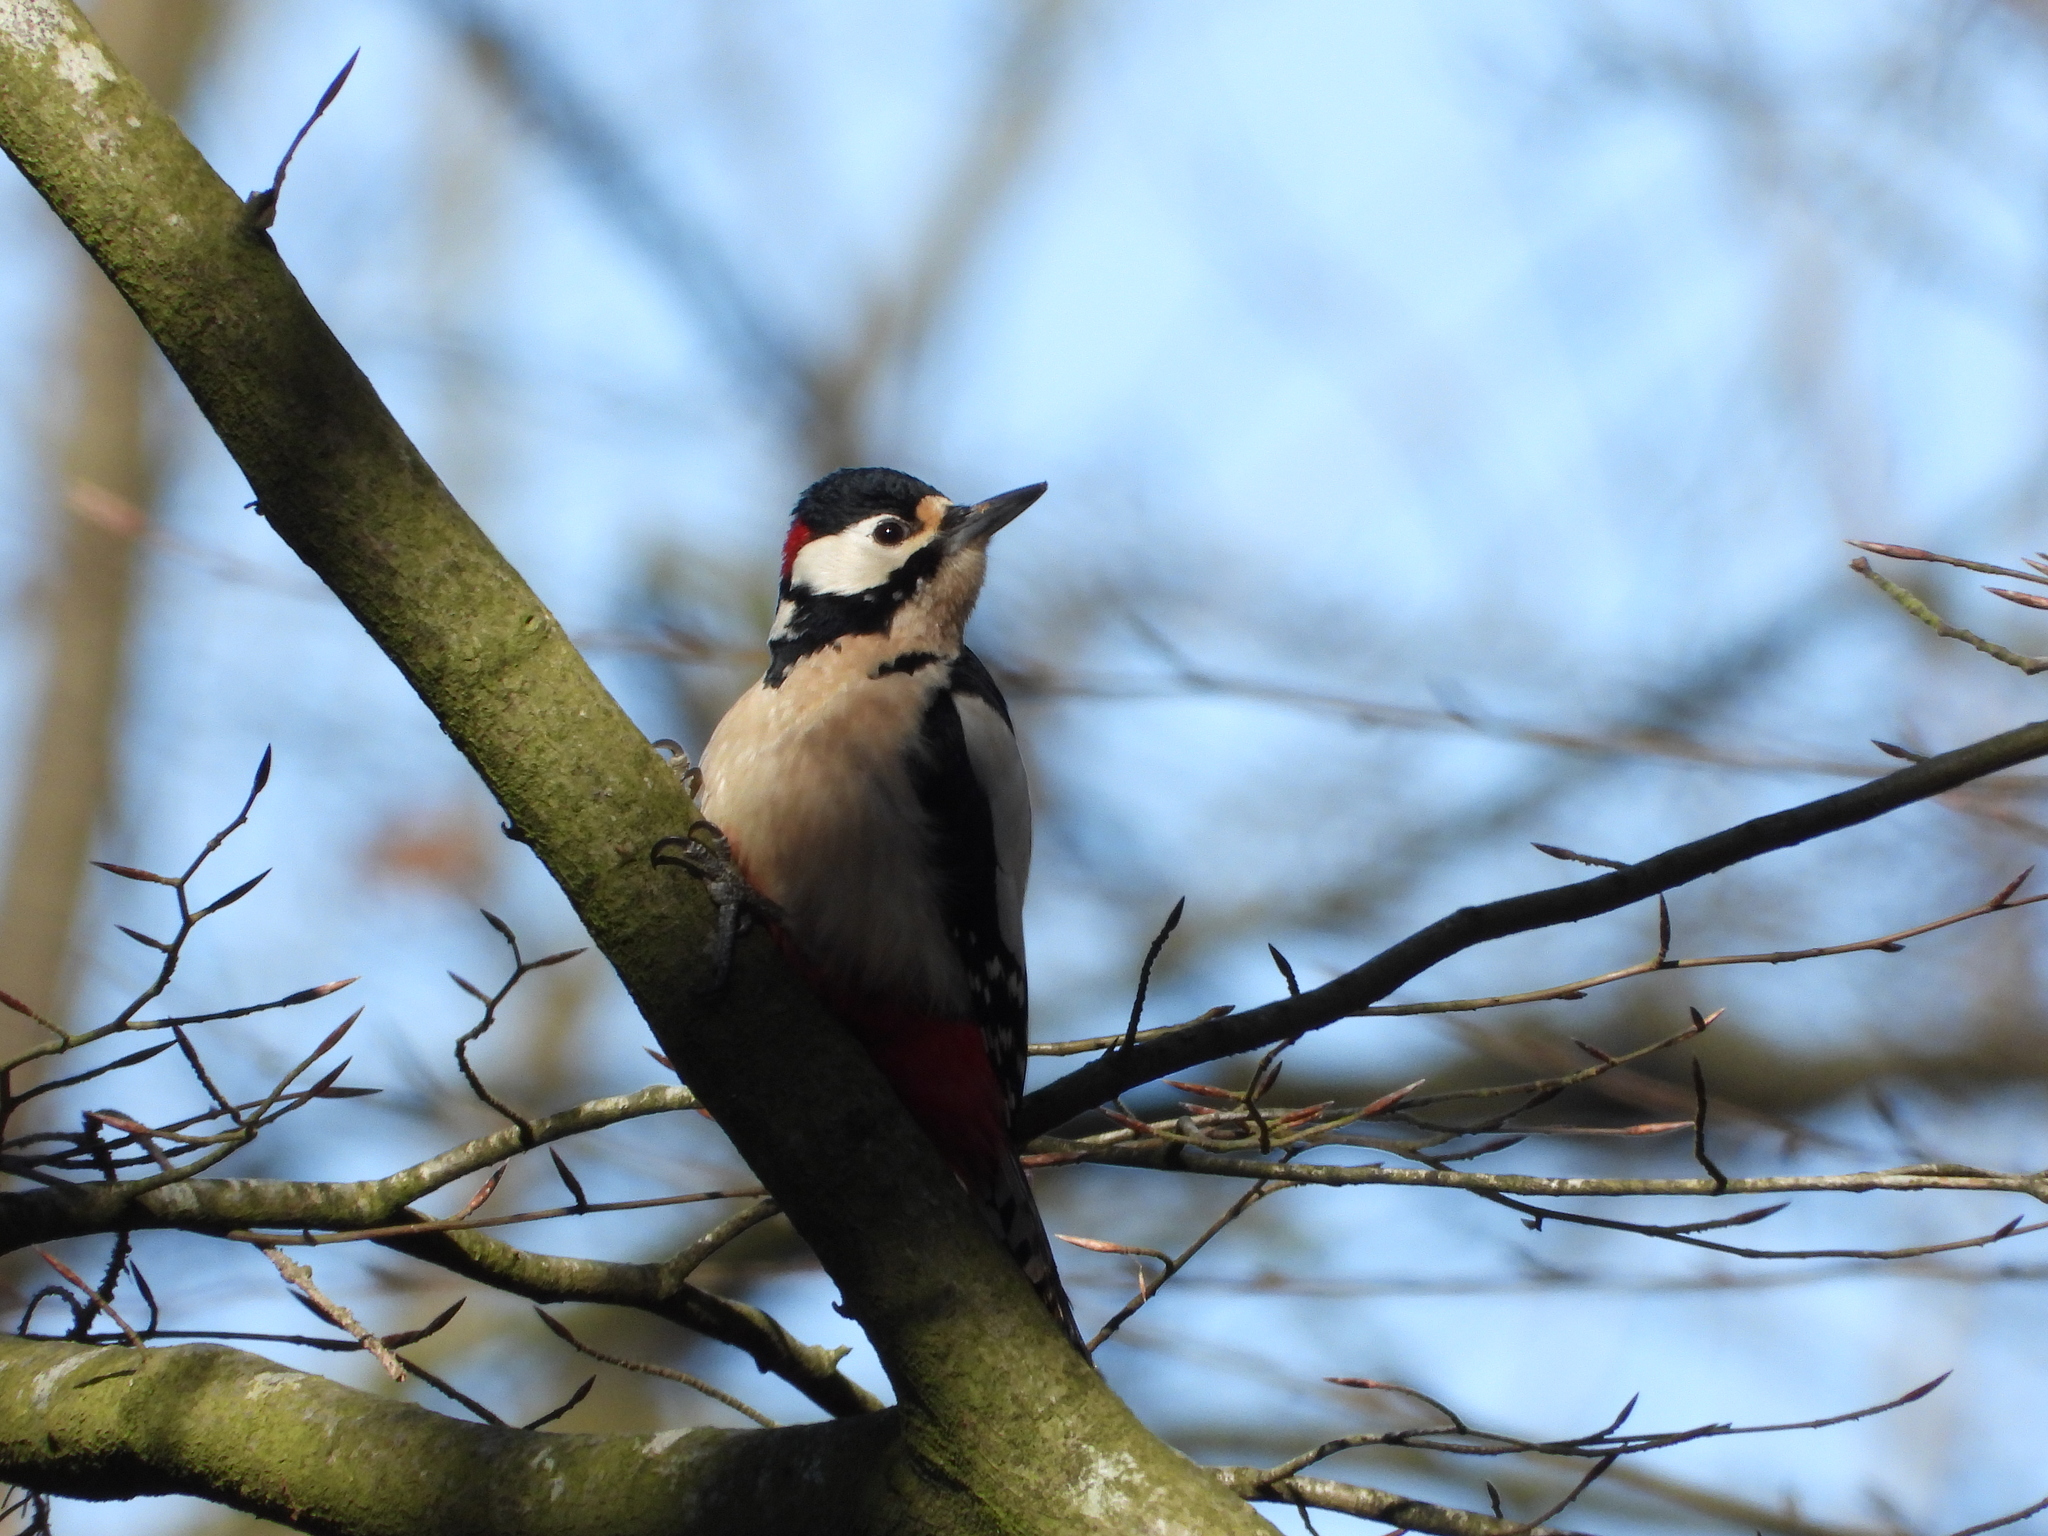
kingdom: Animalia
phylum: Chordata
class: Aves
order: Piciformes
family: Picidae
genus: Dendrocopos
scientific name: Dendrocopos major
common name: Great spotted woodpecker
